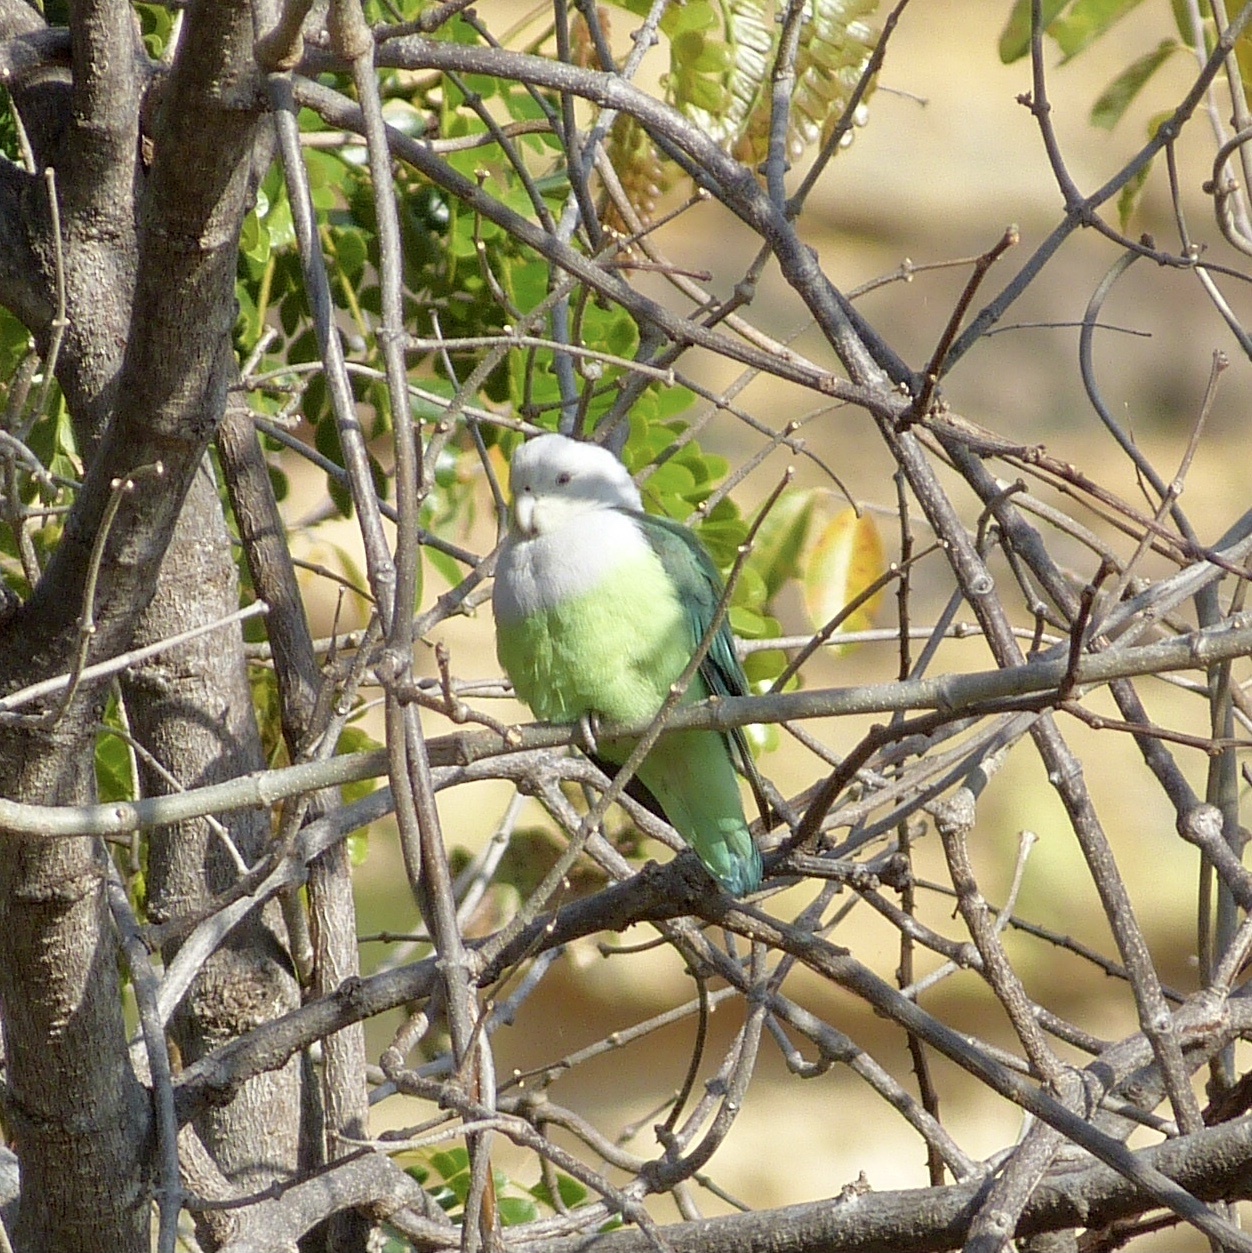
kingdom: Animalia
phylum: Chordata
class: Aves
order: Psittaciformes
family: Psittacidae
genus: Agapornis
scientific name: Agapornis canus
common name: Grey-headed lovebird
